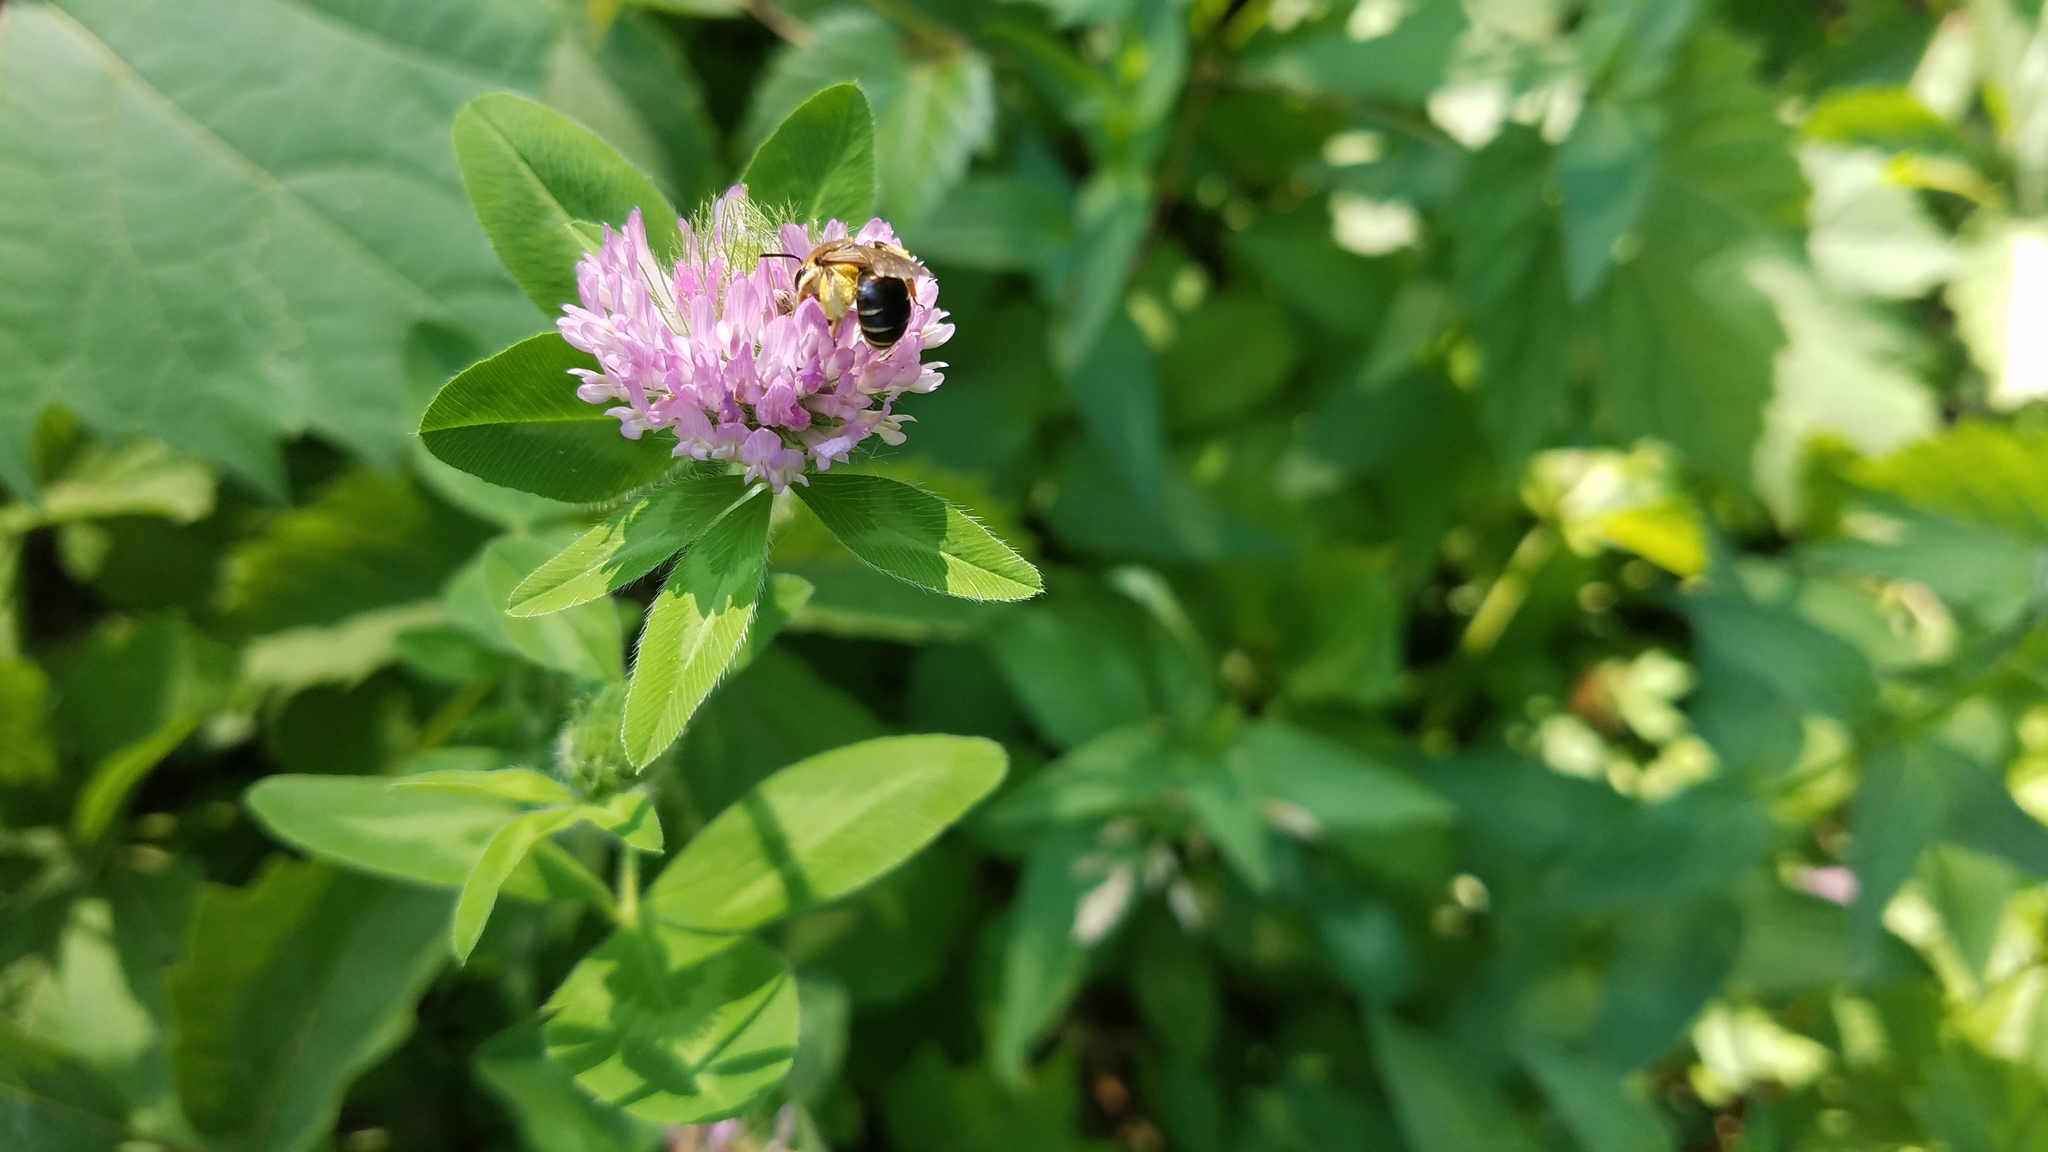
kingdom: Animalia
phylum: Arthropoda
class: Insecta
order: Hymenoptera
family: Andrenidae
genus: Andrena
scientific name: Andrena wilkella
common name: Wilke's mining bee
